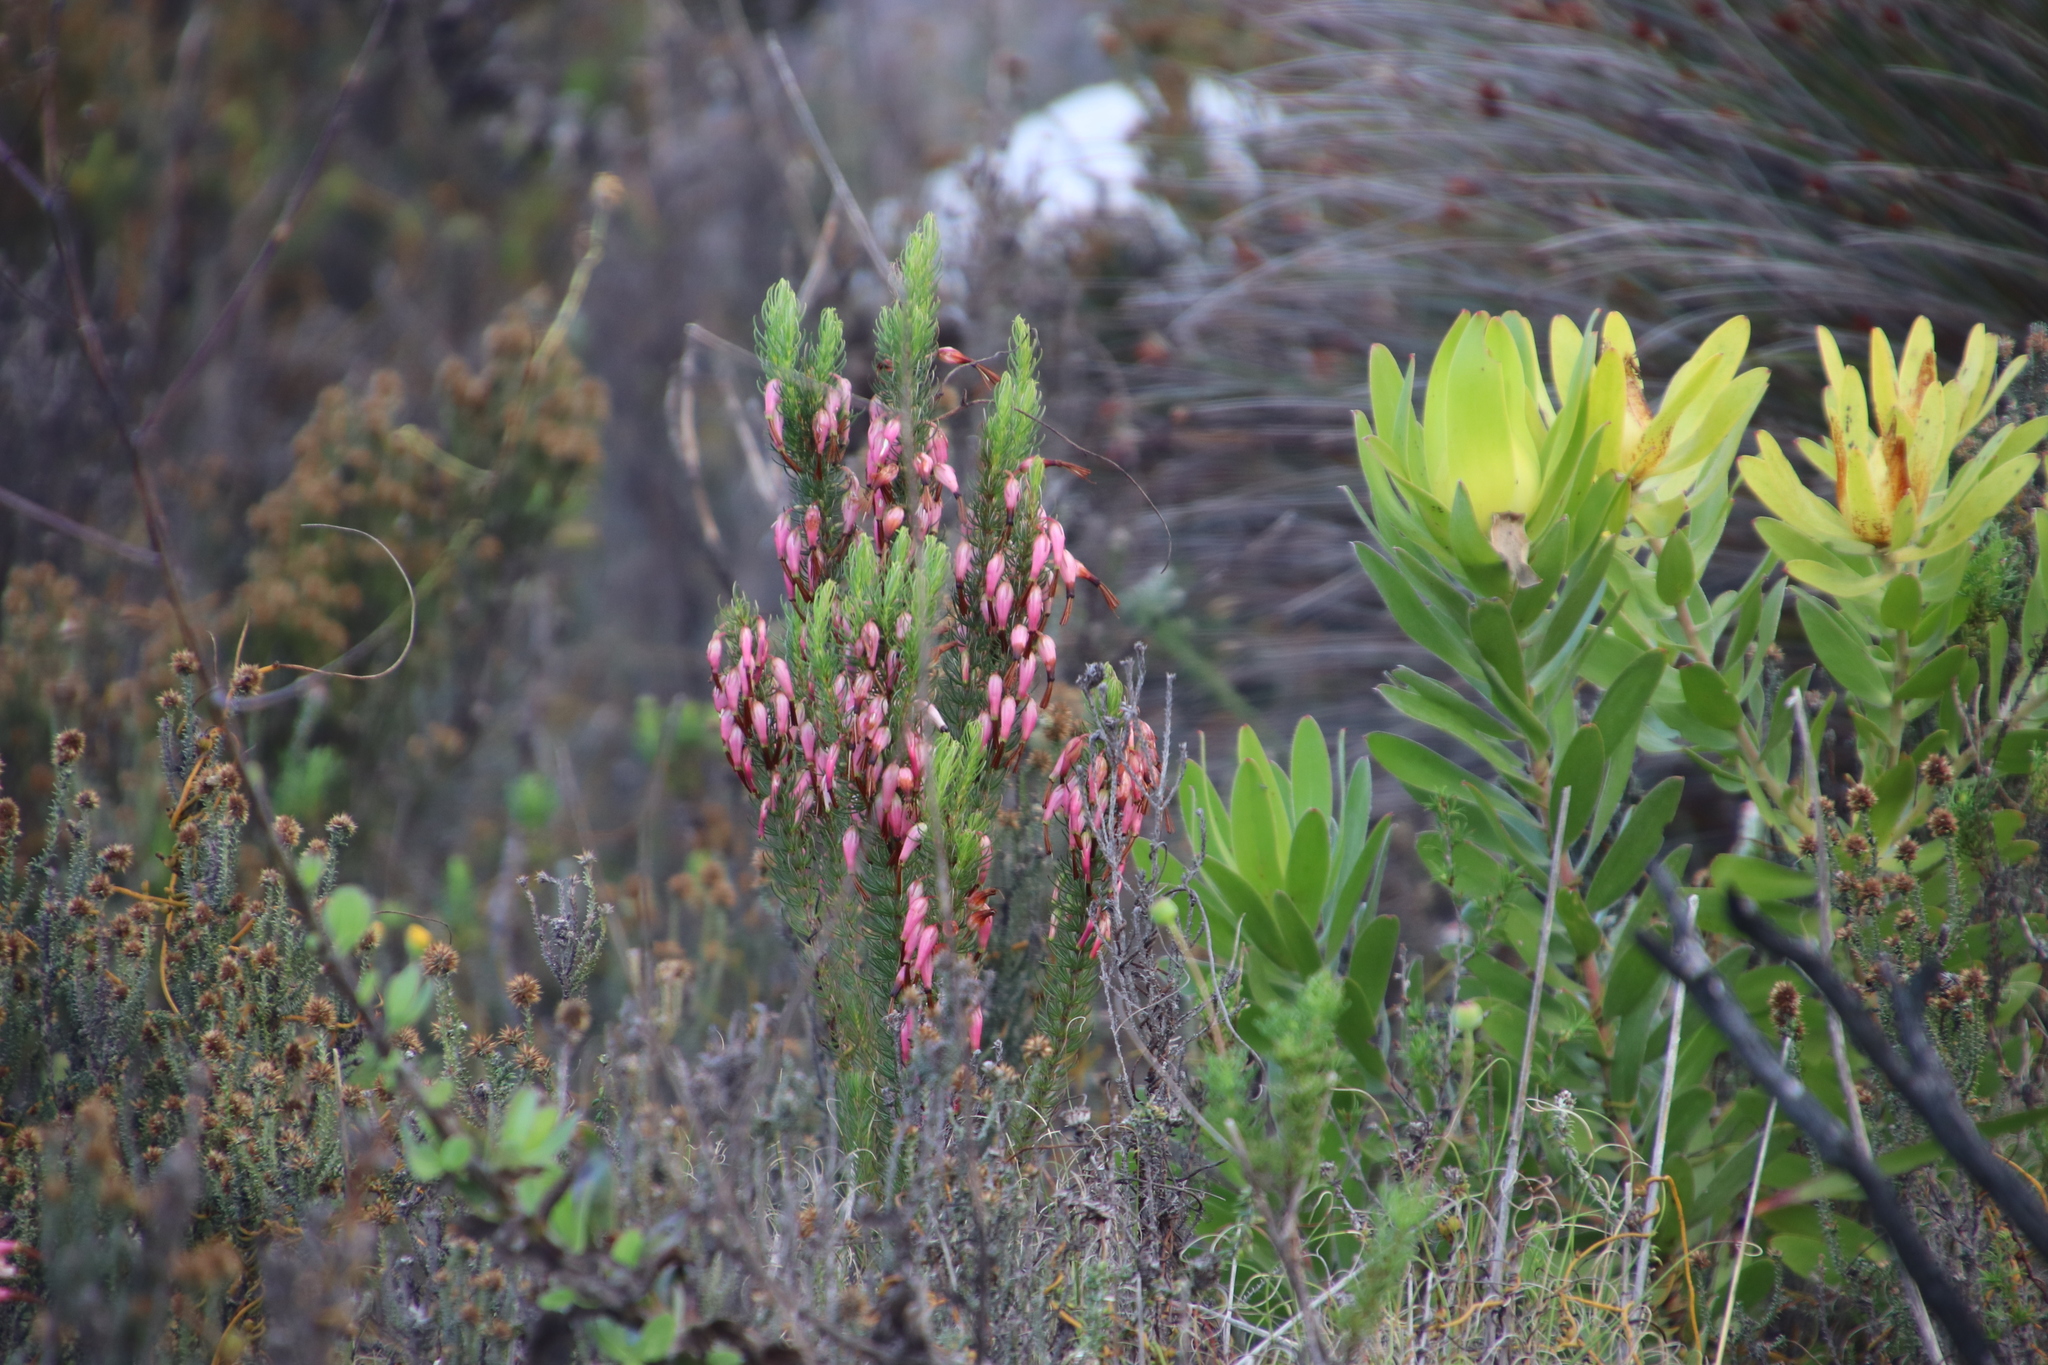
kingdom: Plantae
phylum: Tracheophyta
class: Magnoliopsida
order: Ericales
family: Ericaceae
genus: Erica
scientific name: Erica plukenetii
